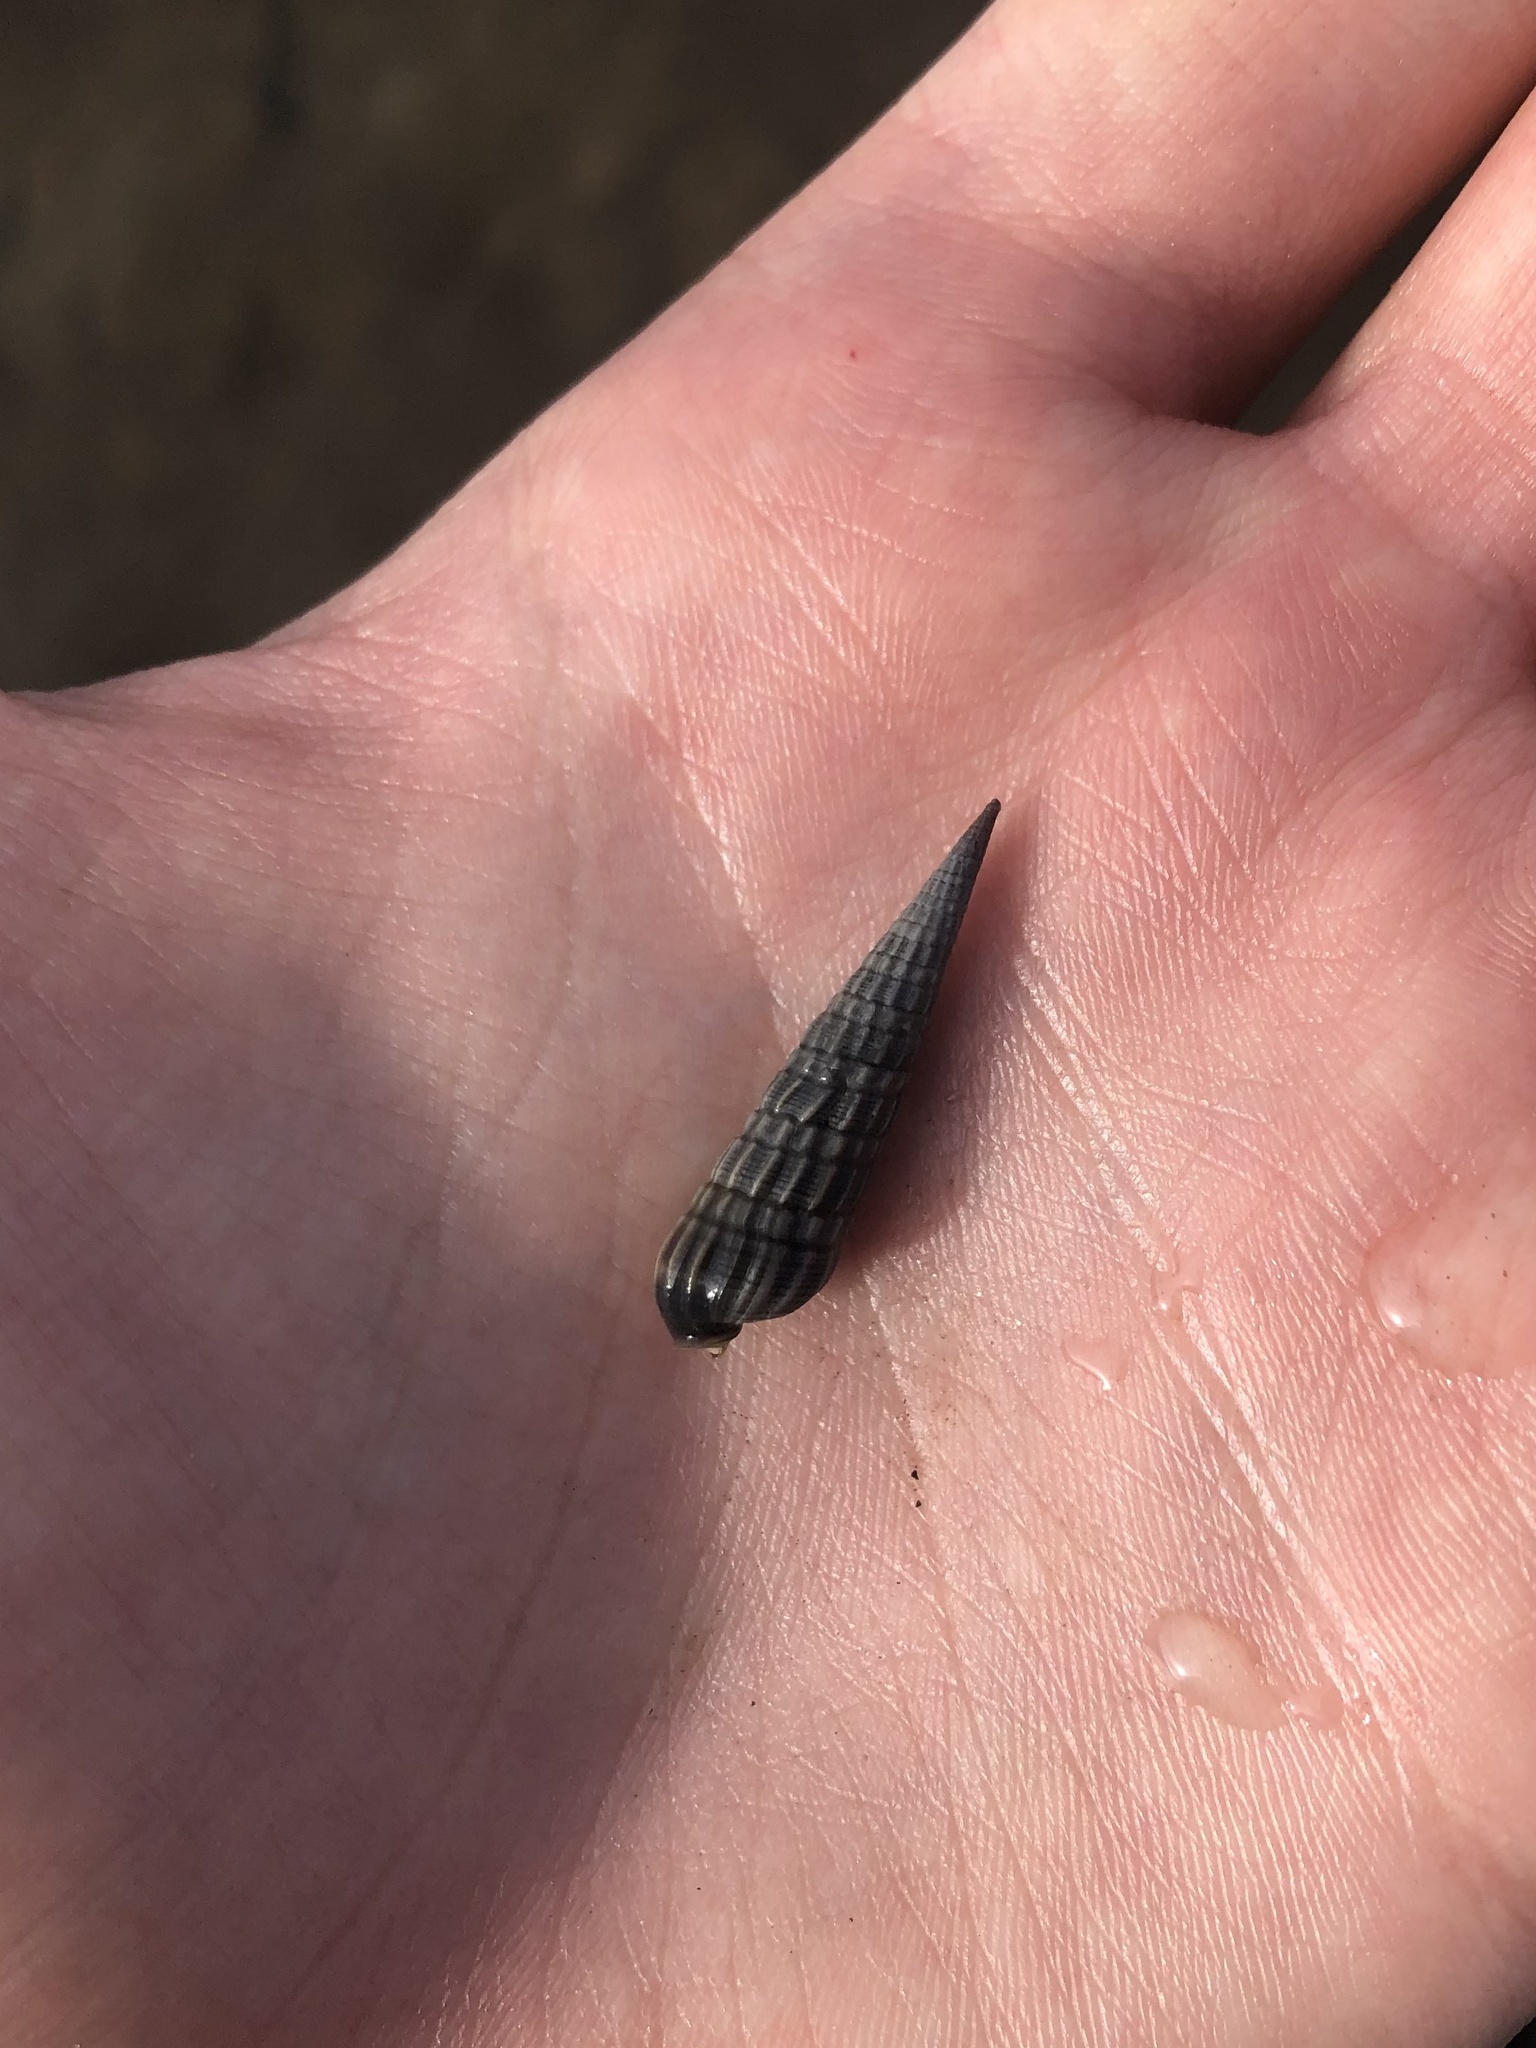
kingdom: Animalia
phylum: Mollusca
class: Gastropoda
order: Neogastropoda
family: Terebridae
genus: Neoterebra
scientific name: Neoterebra dislocata
